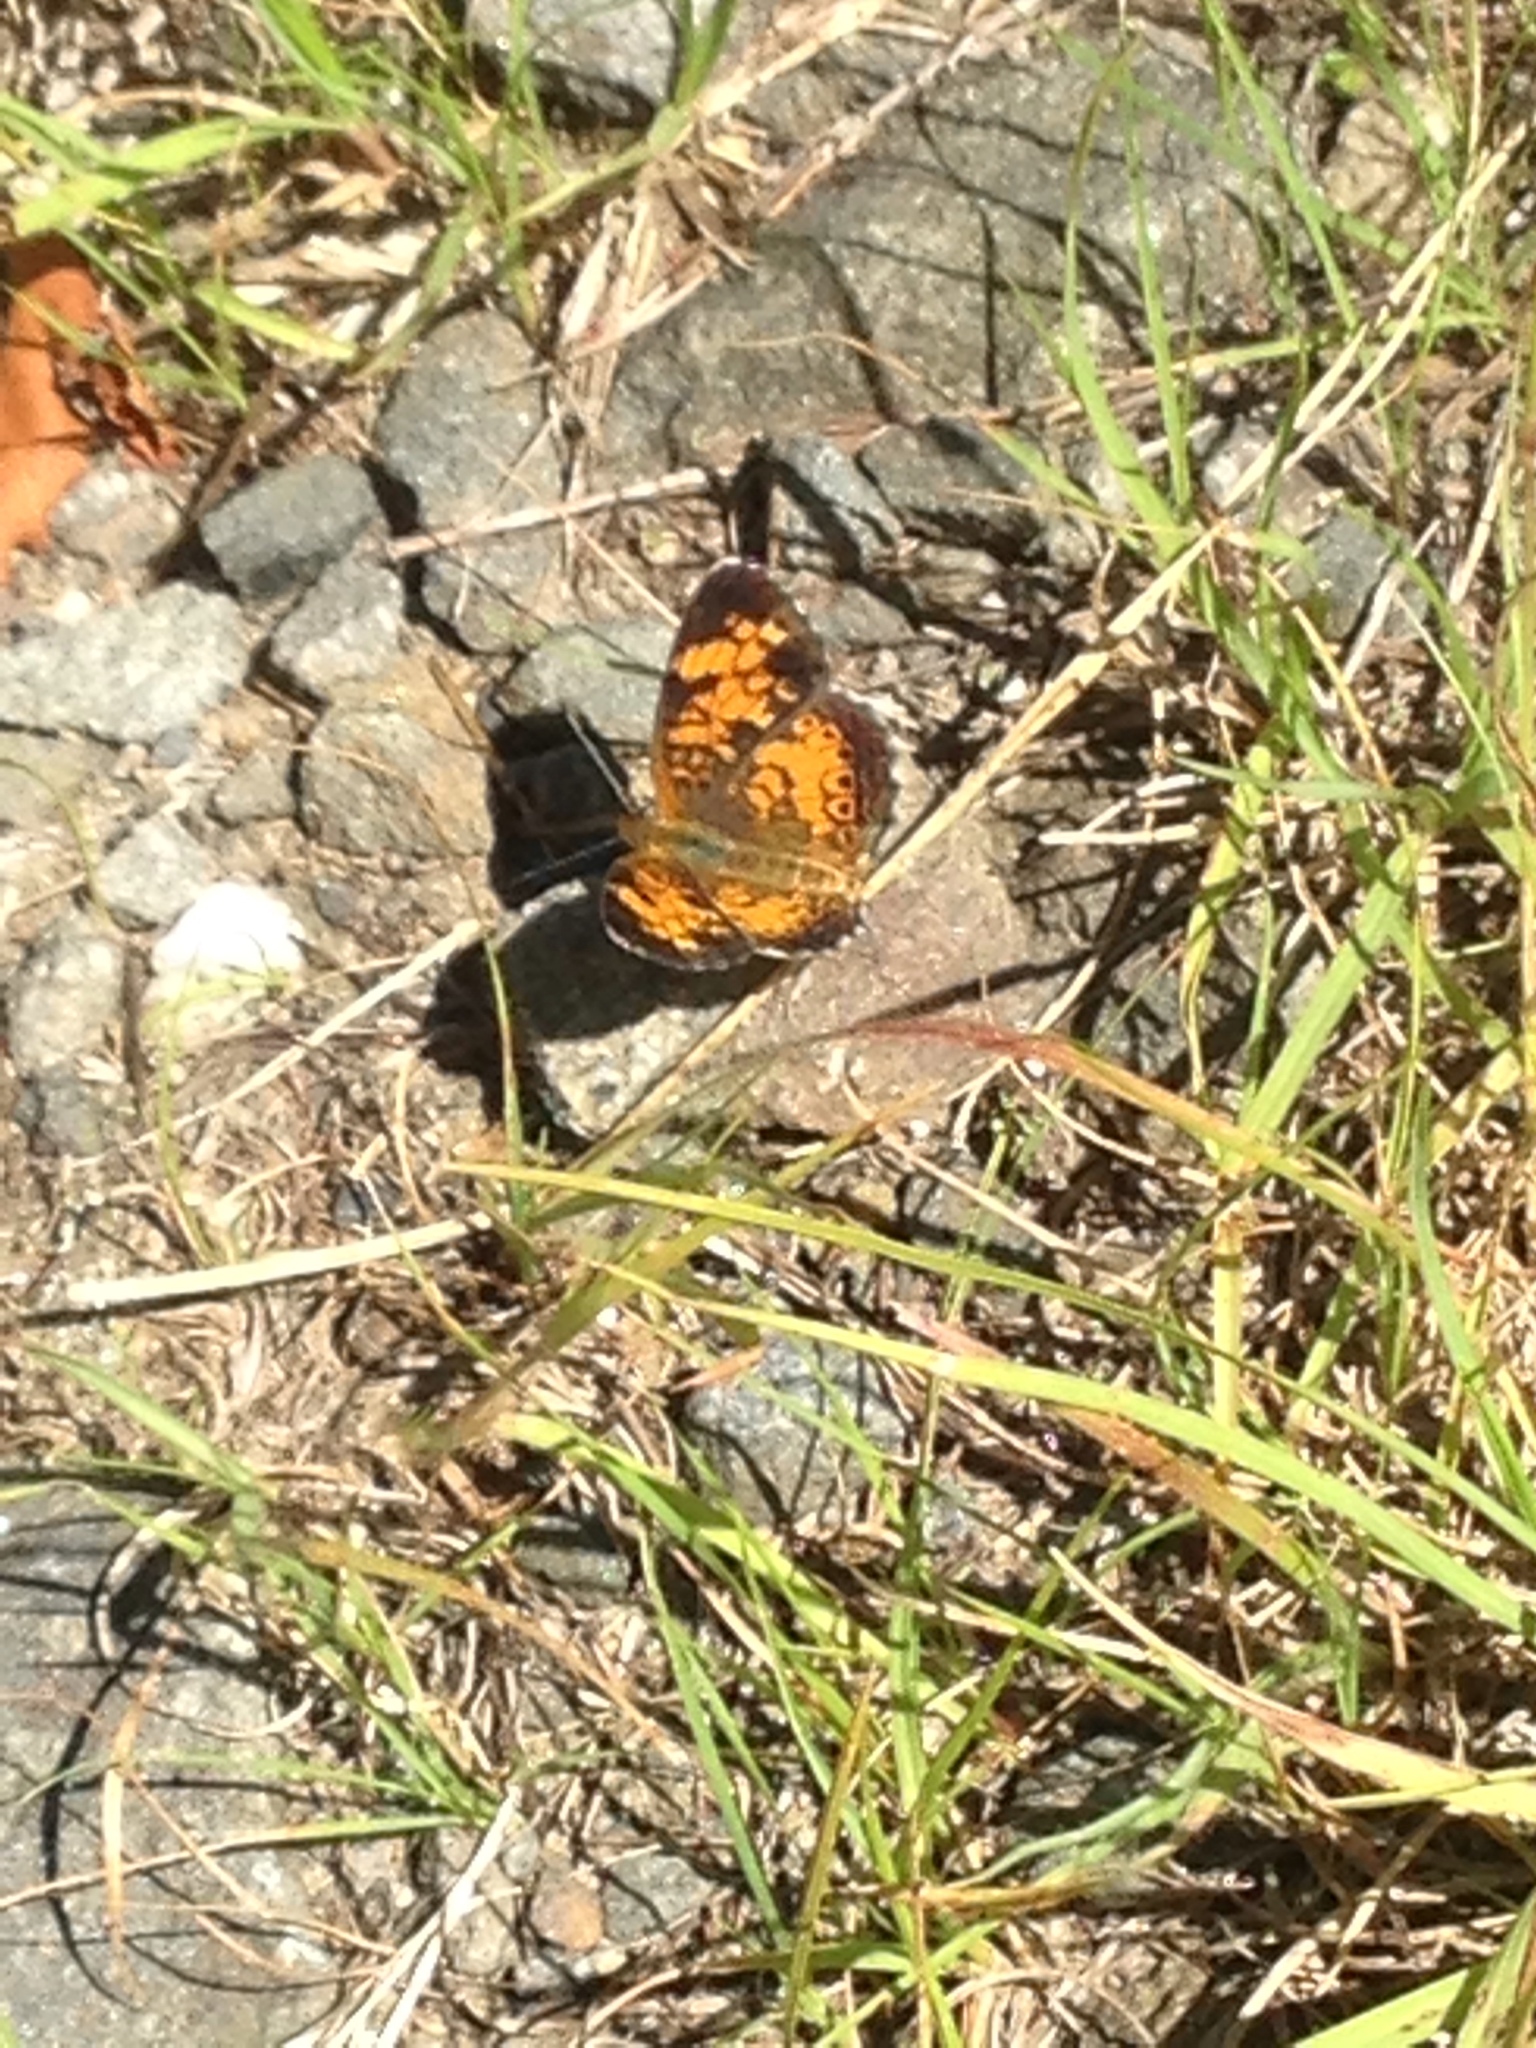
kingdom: Animalia
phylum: Arthropoda
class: Insecta
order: Lepidoptera
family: Nymphalidae
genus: Phyciodes
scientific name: Phyciodes tharos
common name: Pearl crescent
